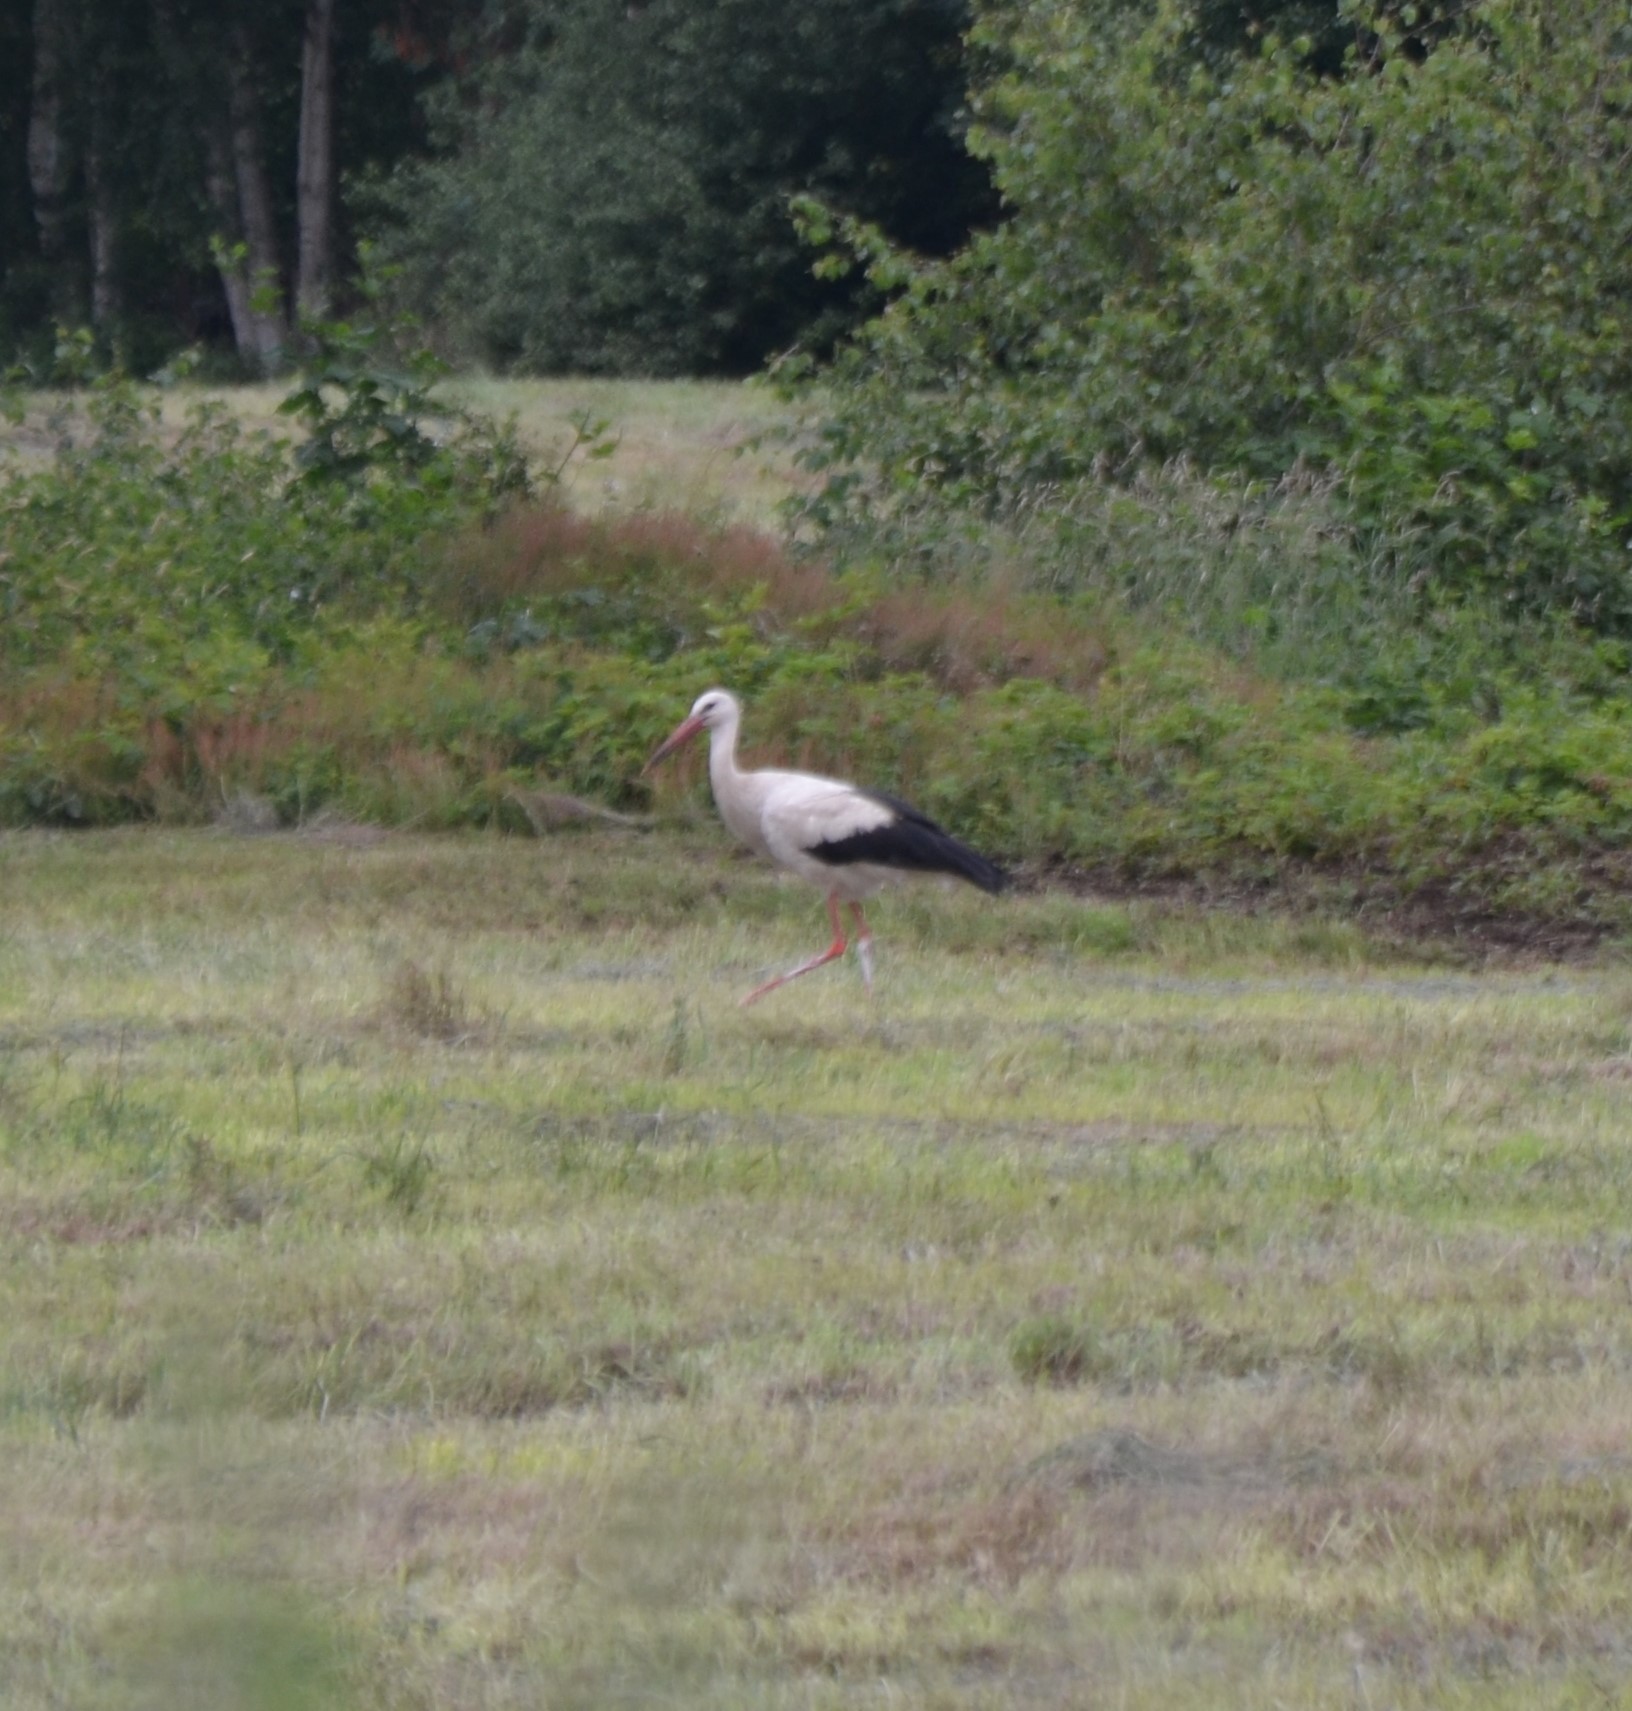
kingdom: Animalia
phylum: Chordata
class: Aves
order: Ciconiiformes
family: Ciconiidae
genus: Ciconia
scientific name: Ciconia ciconia
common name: White stork
